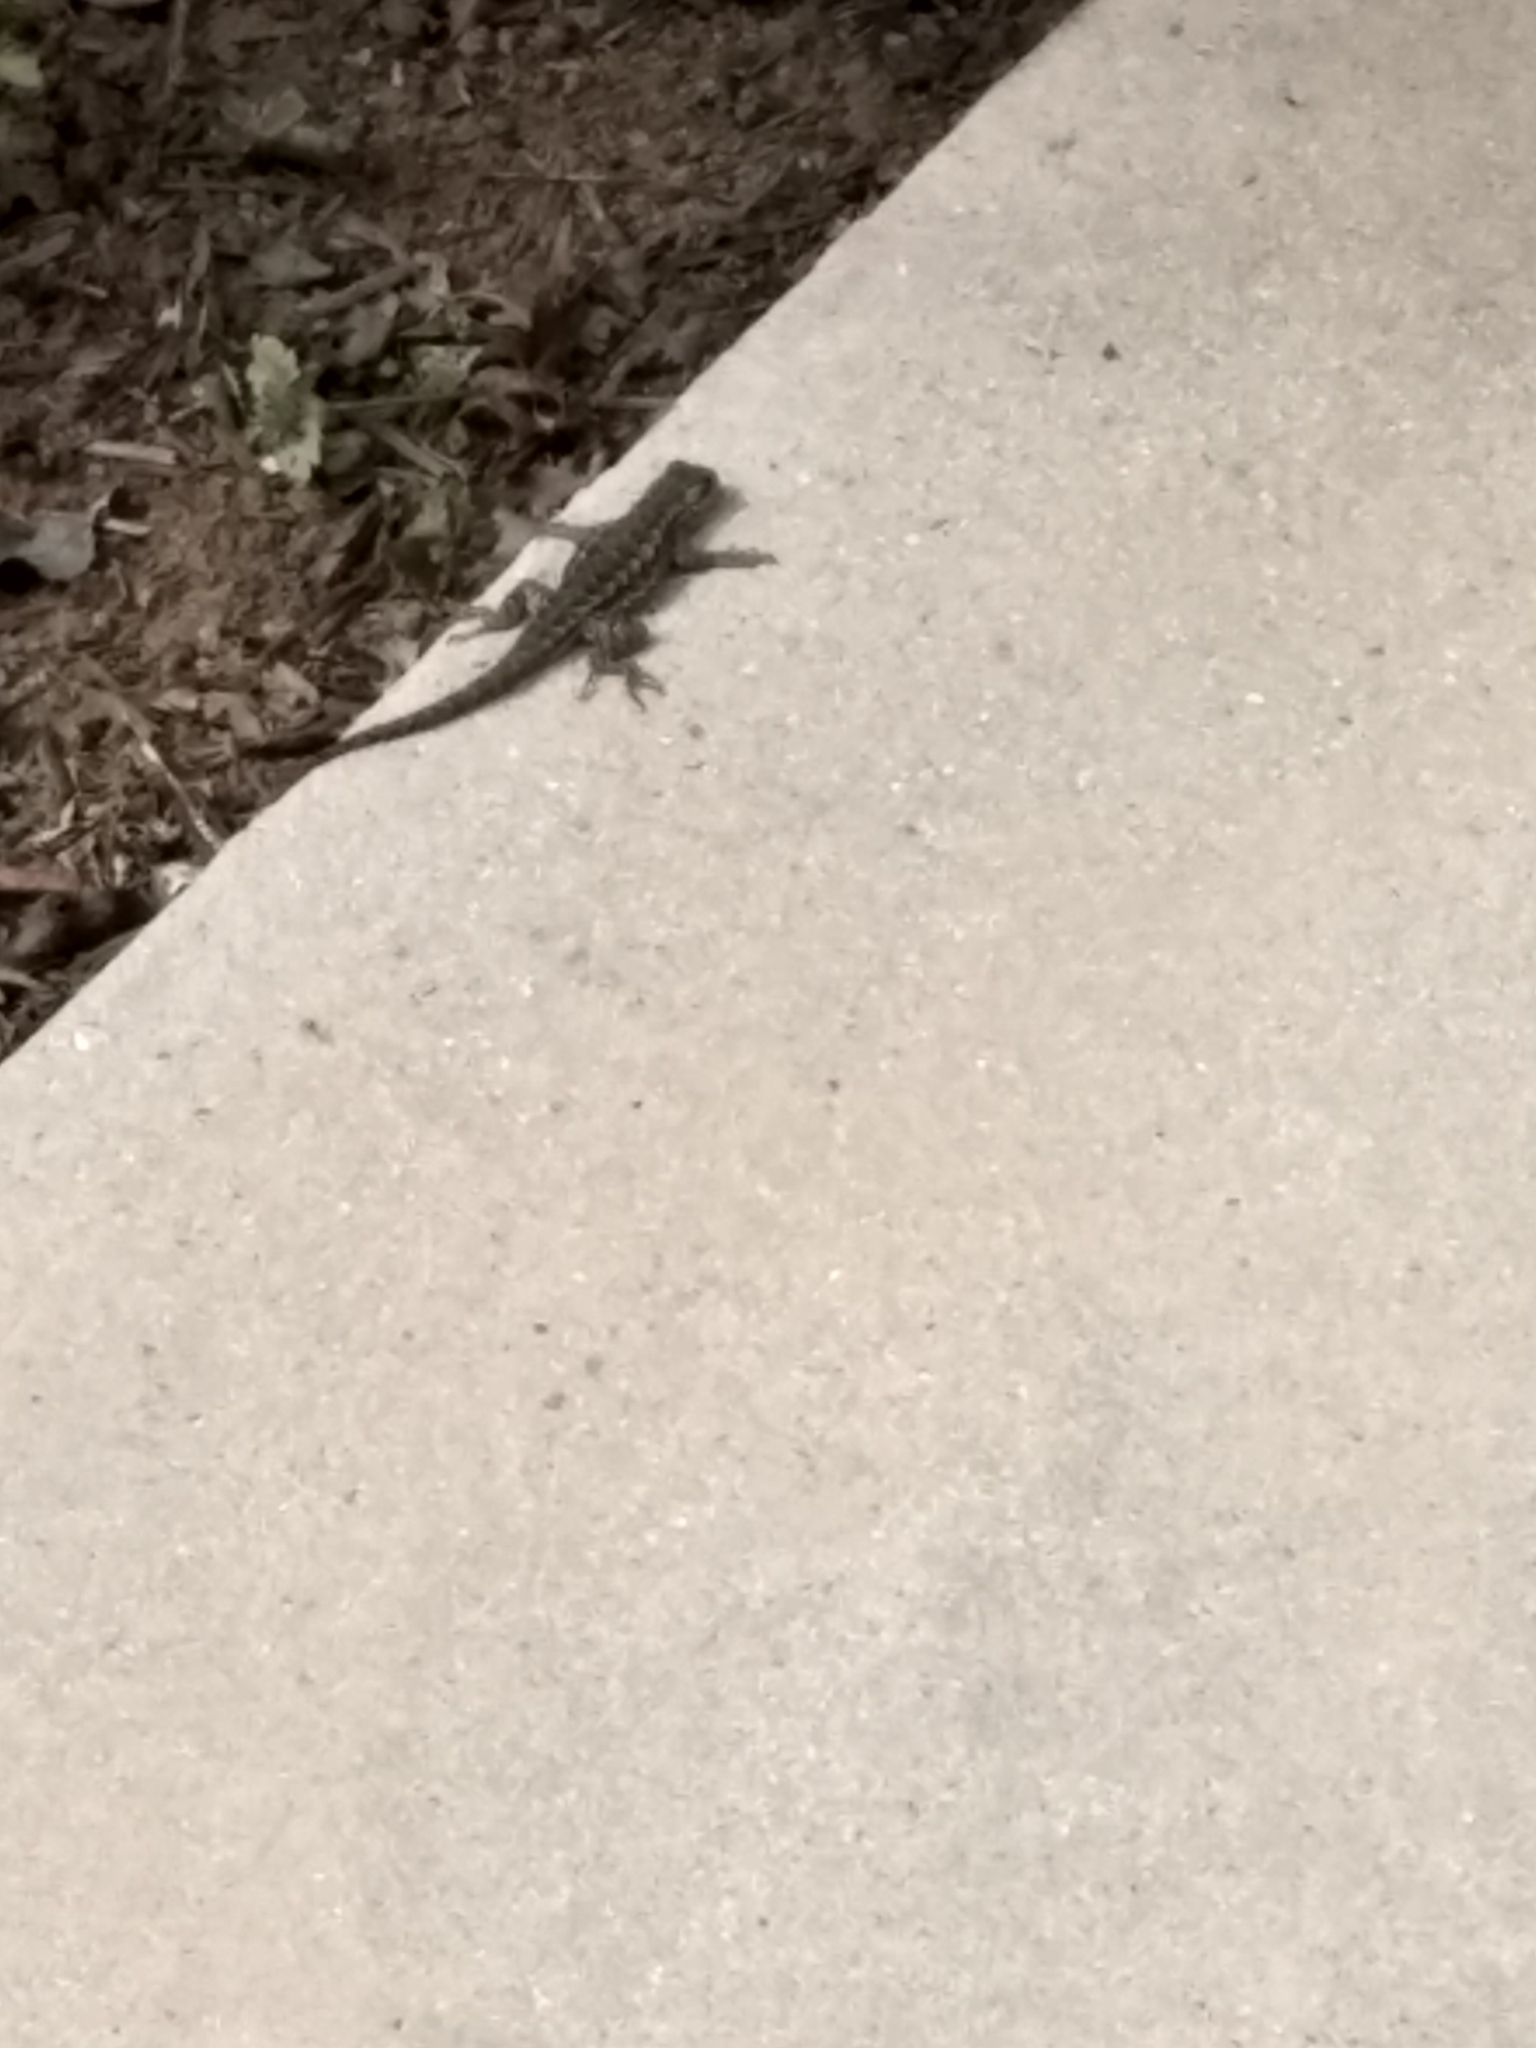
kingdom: Animalia
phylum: Chordata
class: Squamata
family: Phrynosomatidae
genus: Sceloporus
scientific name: Sceloporus occidentalis
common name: Western fence lizard
